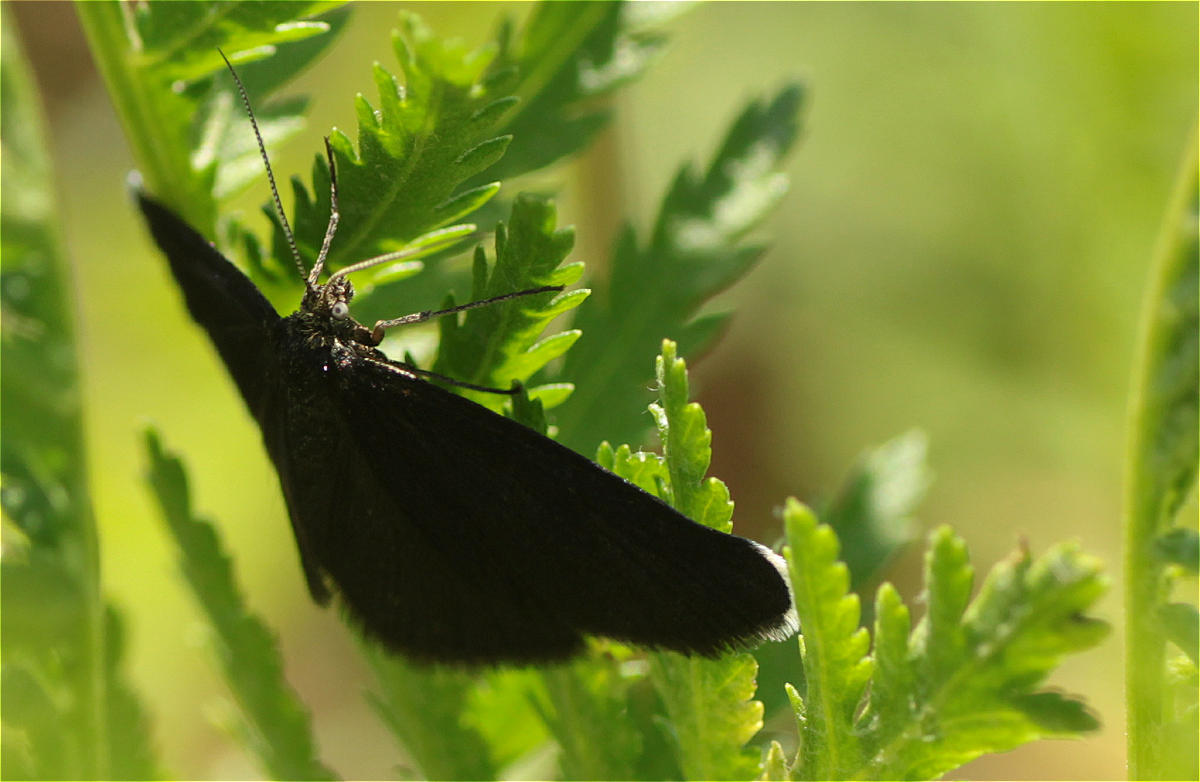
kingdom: Animalia
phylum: Arthropoda
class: Insecta
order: Lepidoptera
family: Geometridae
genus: Odezia
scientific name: Odezia atrata
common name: Chimney sweeper
